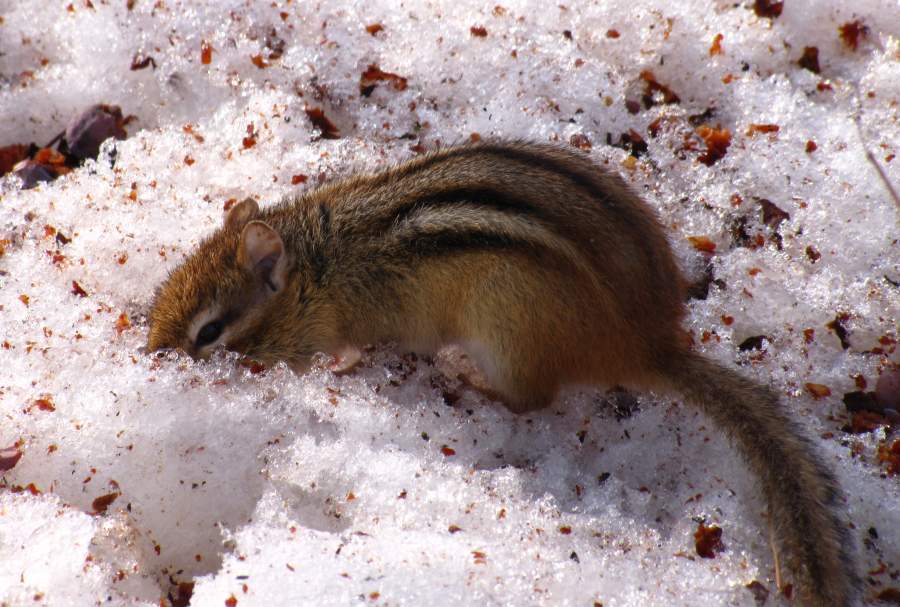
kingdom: Animalia
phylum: Chordata
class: Mammalia
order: Rodentia
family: Sciuridae
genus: Tamias
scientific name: Tamias striatus
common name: Eastern chipmunk
